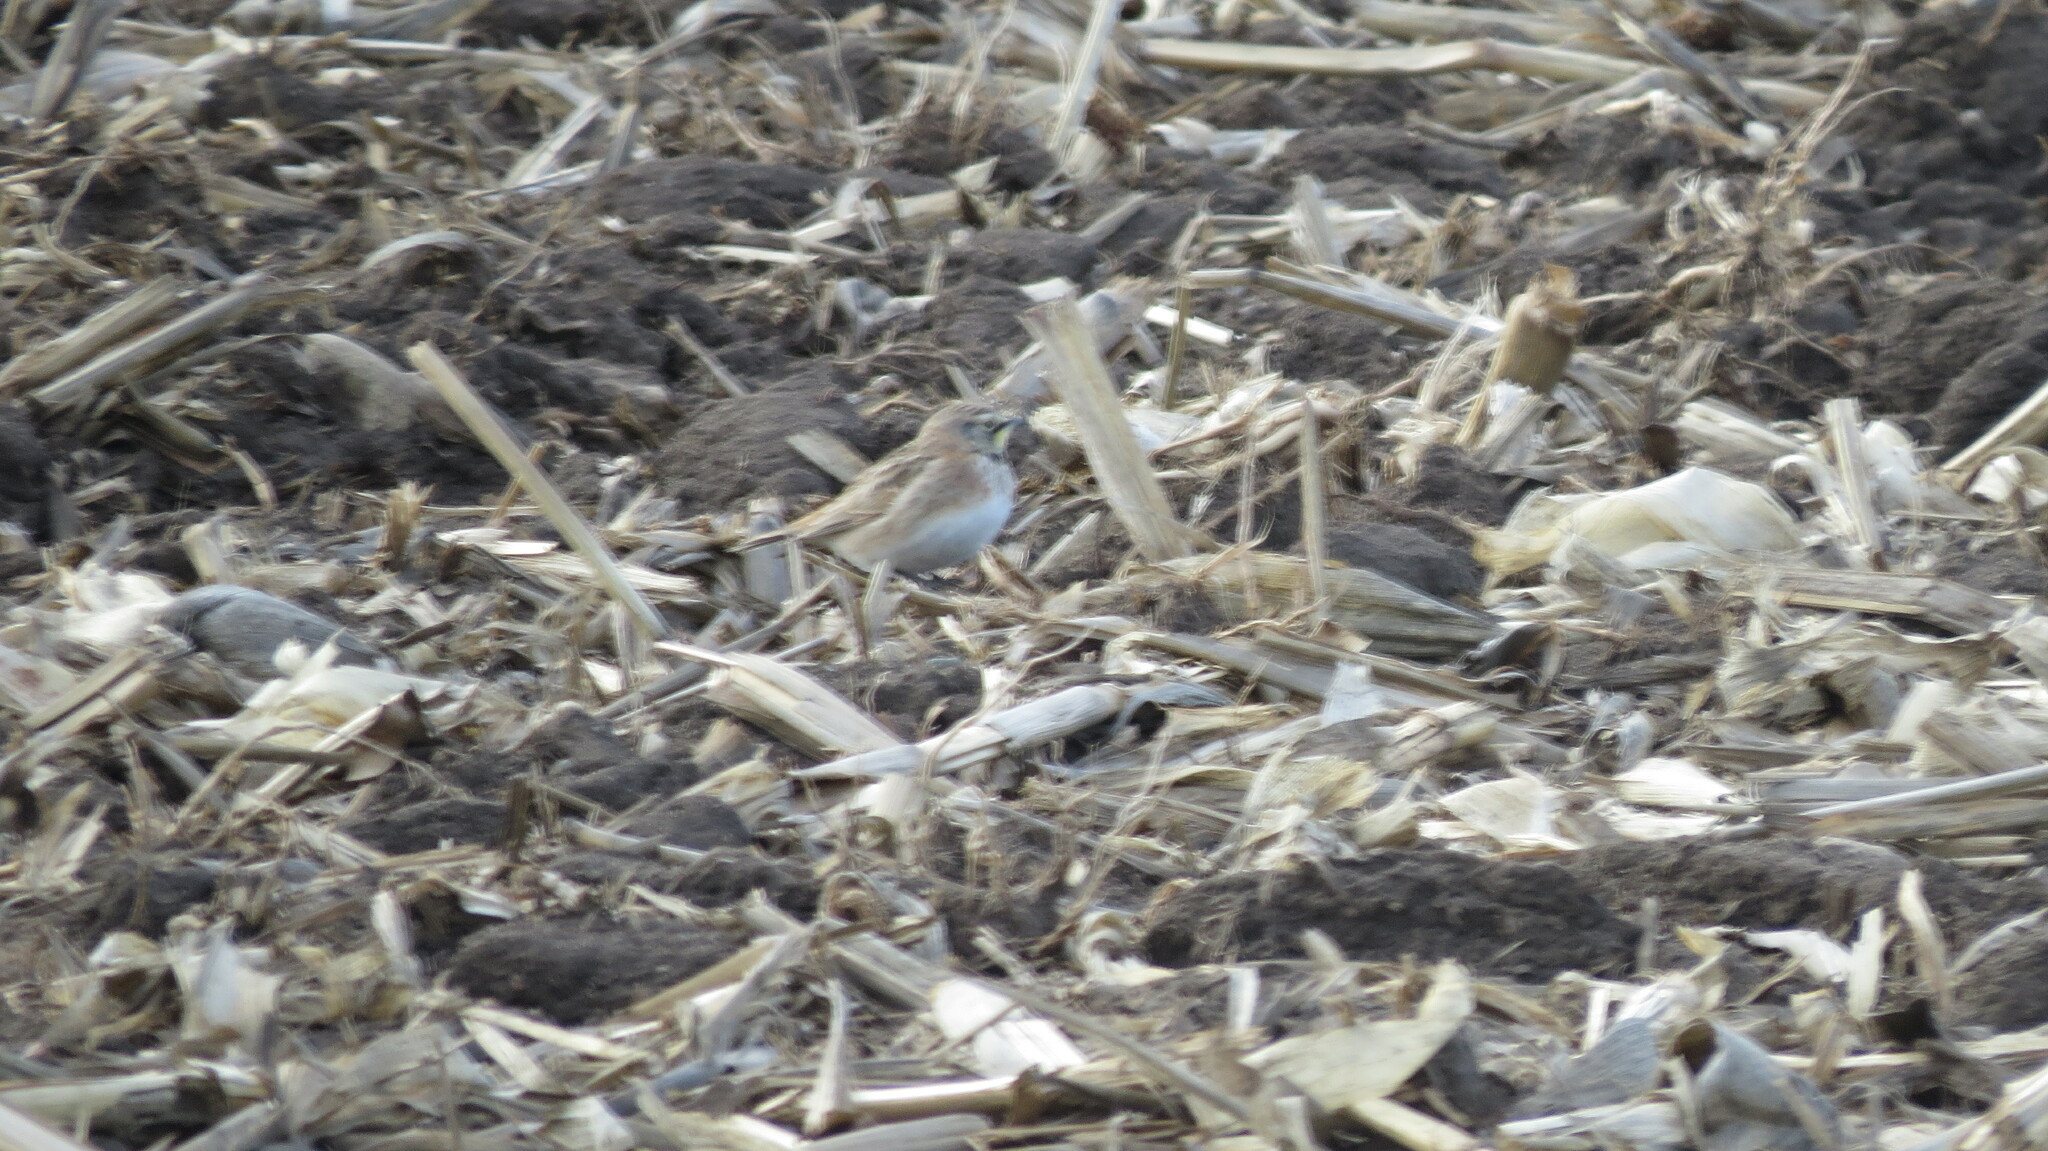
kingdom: Animalia
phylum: Chordata
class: Aves
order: Passeriformes
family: Alaudidae
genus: Eremophila
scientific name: Eremophila alpestris
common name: Horned lark
